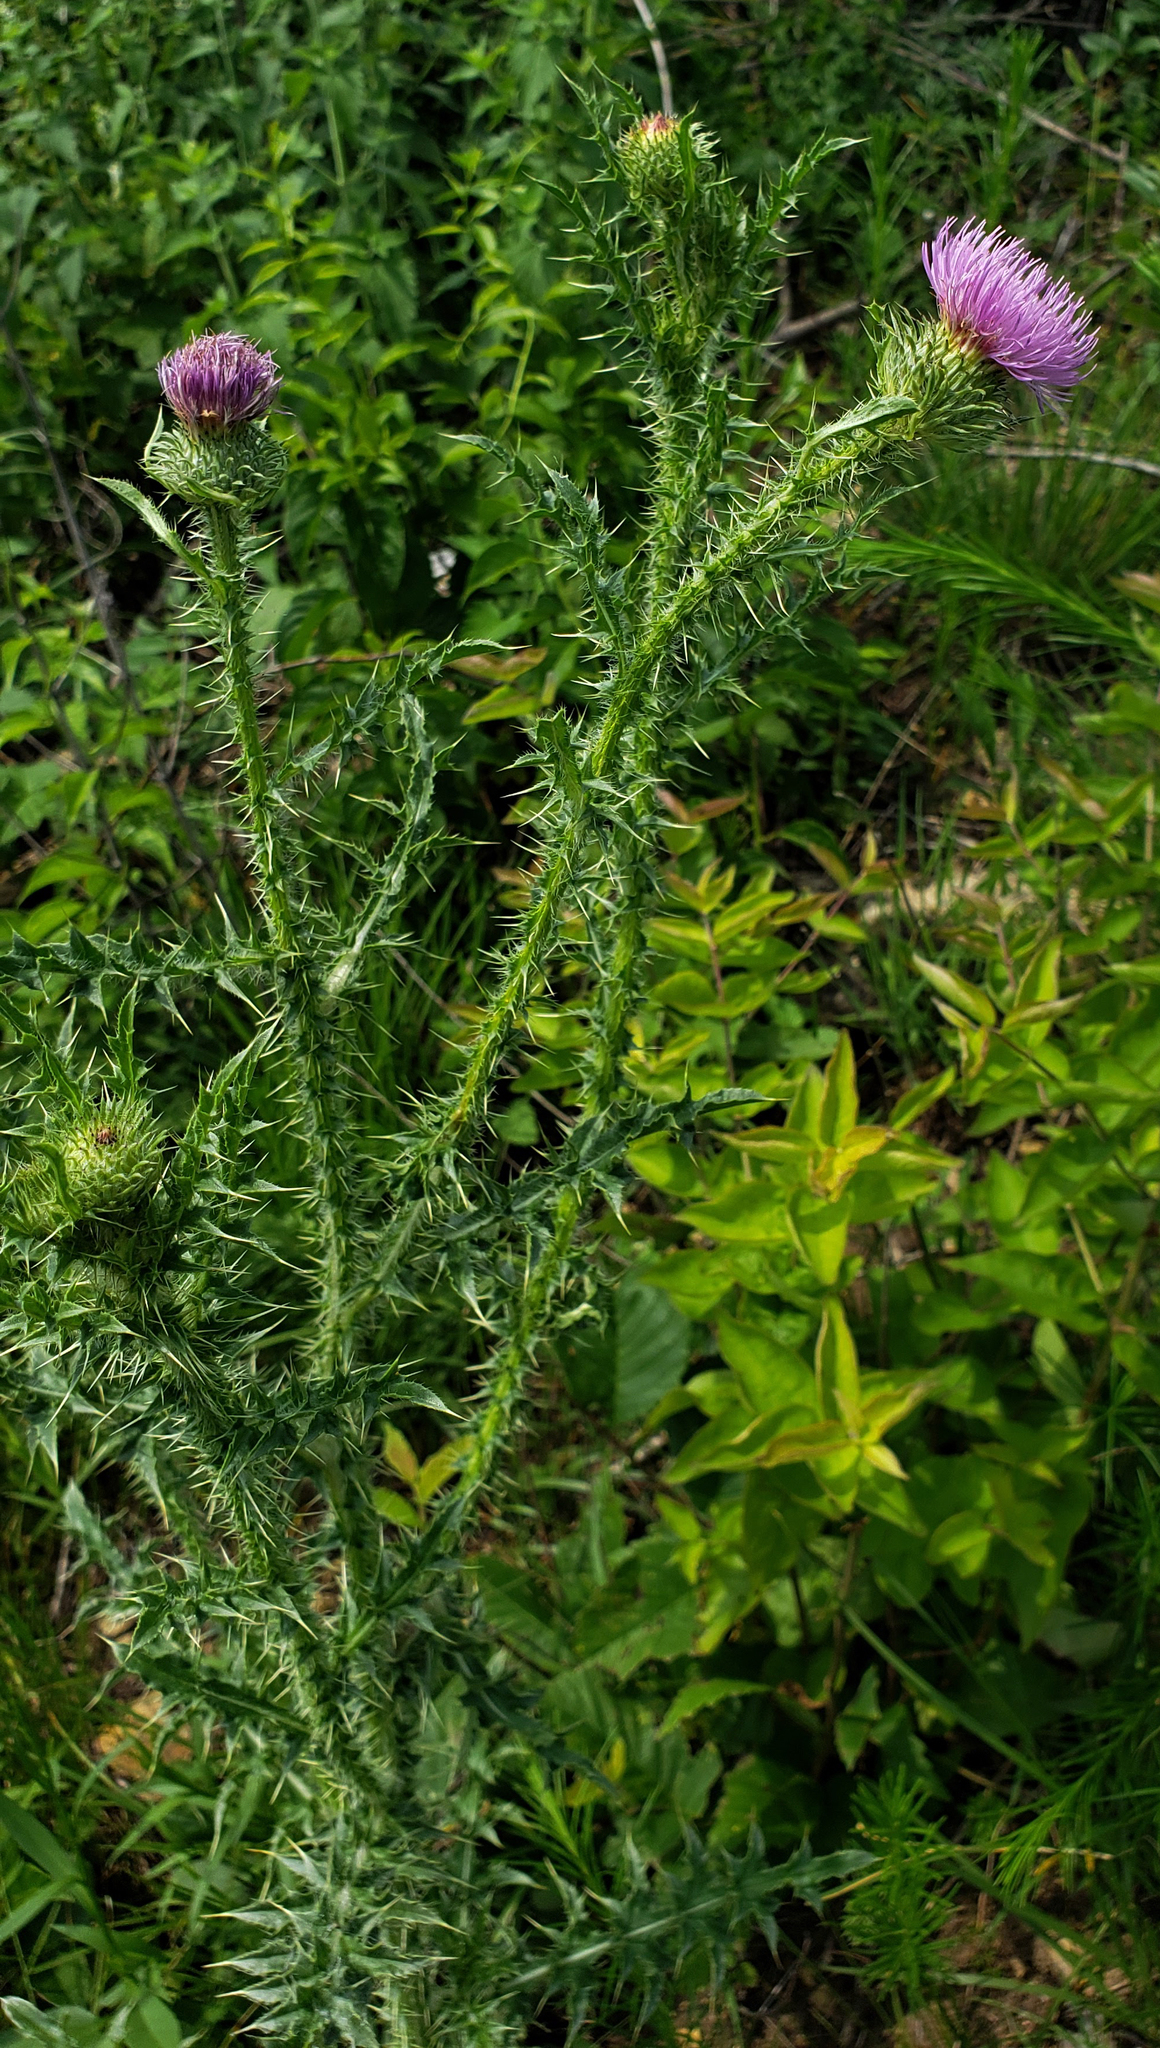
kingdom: Plantae
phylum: Tracheophyta
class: Magnoliopsida
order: Asterales
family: Asteraceae
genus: Carduus
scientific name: Carduus acanthoides
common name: Plumeless thistle
